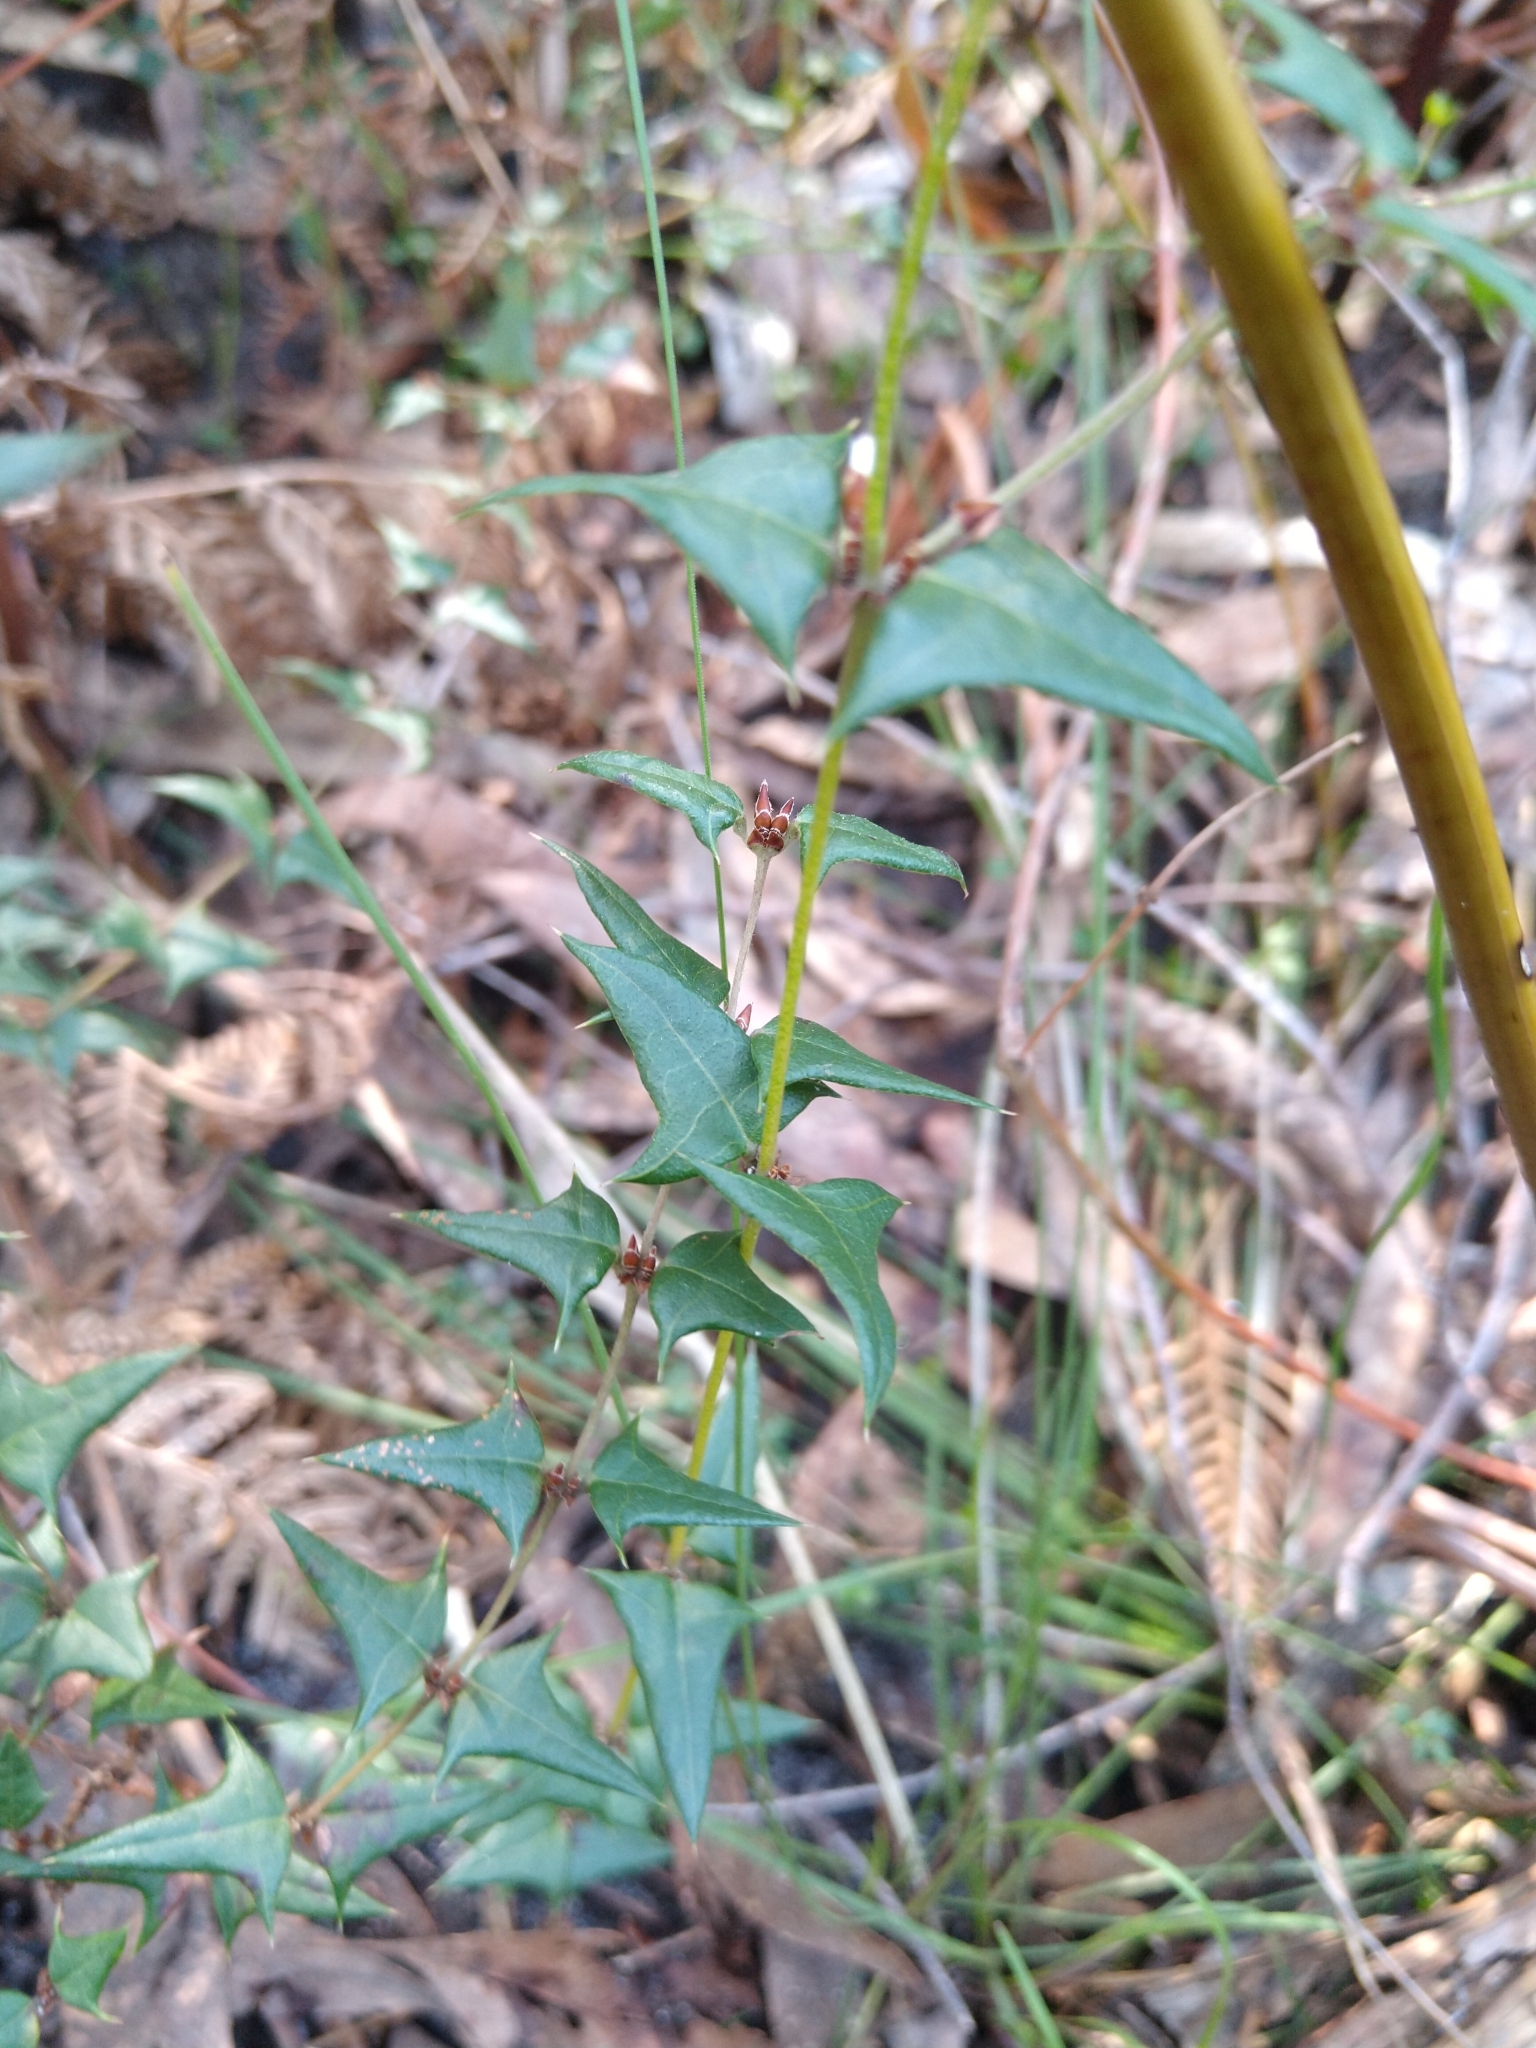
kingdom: Plantae
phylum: Tracheophyta
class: Magnoliopsida
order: Fabales
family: Fabaceae
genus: Platylobium
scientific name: Platylobium obtusangulum
